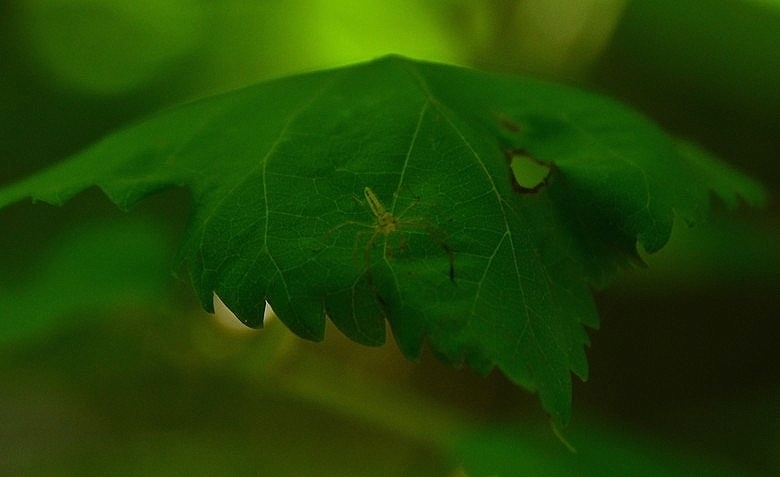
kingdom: Animalia
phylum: Arthropoda
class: Arachnida
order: Araneae
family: Salticidae
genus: Lyssomanes
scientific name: Lyssomanes pauper
